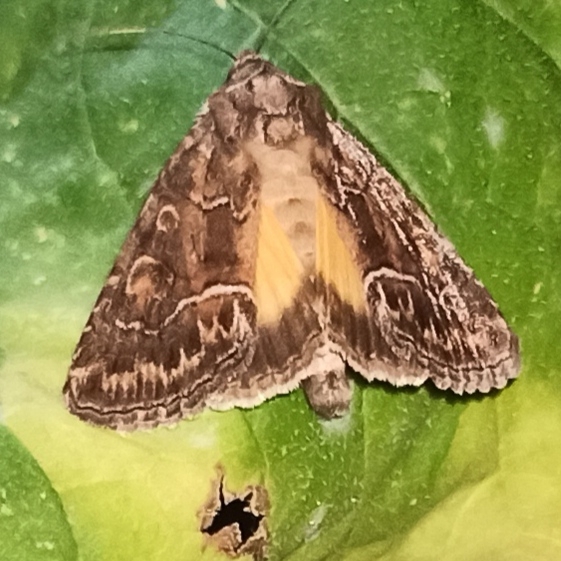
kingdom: Animalia
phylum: Arthropoda
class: Insecta
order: Lepidoptera
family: Noctuidae
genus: Thalpophila
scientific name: Thalpophila matura
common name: Straw underwing
